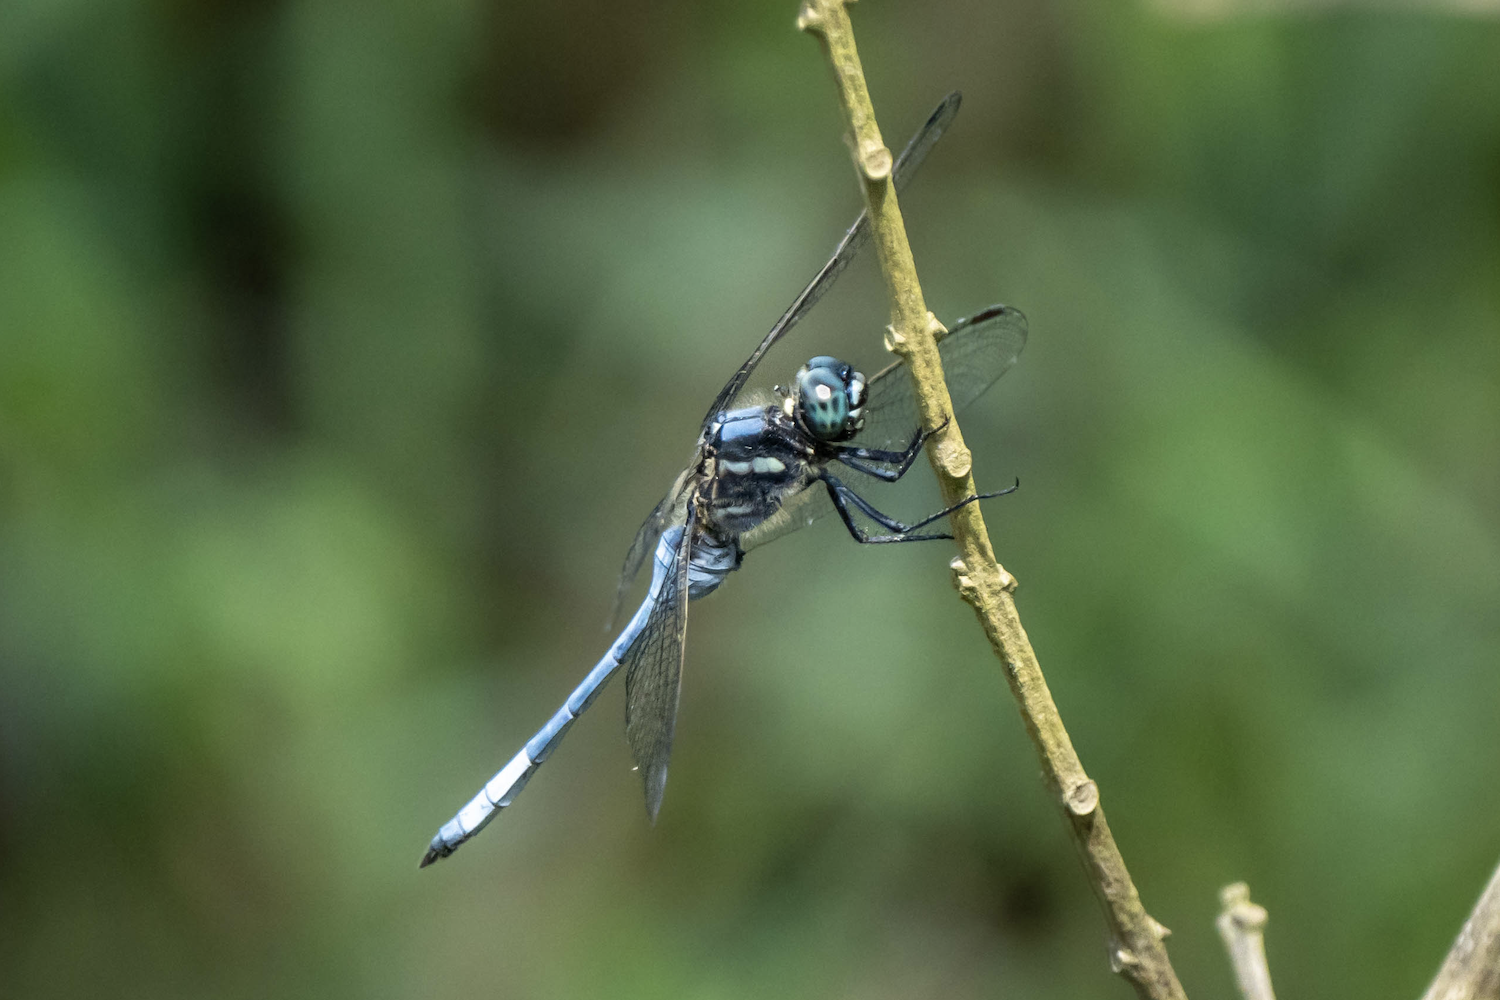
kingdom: Animalia
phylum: Arthropoda
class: Insecta
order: Odonata
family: Libellulidae
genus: Orthetrum
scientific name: Orthetrum poecilops
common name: Mangrove skimmer
